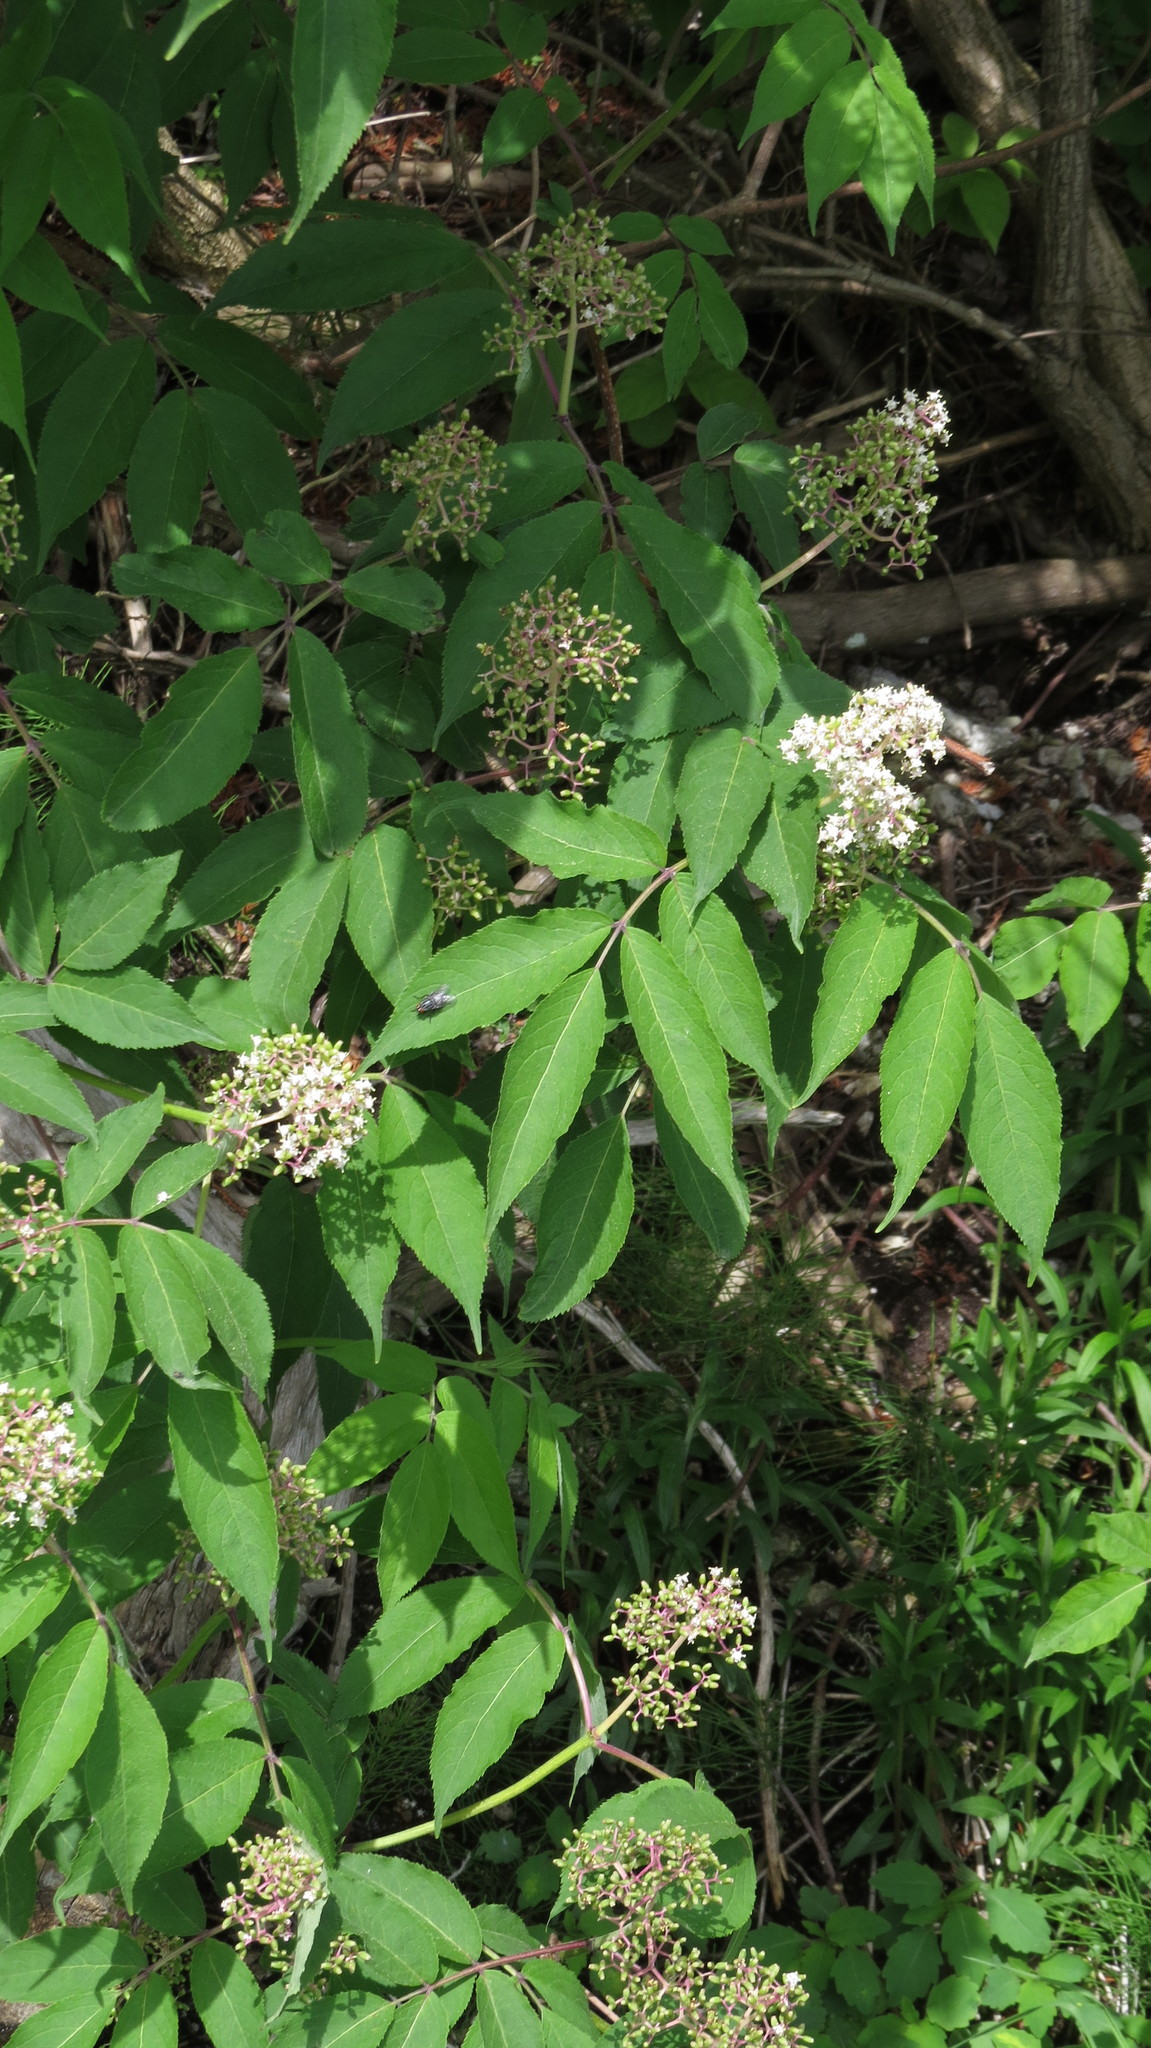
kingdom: Plantae
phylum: Tracheophyta
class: Magnoliopsida
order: Dipsacales
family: Viburnaceae
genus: Sambucus
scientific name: Sambucus racemosa
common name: Red-berried elder
